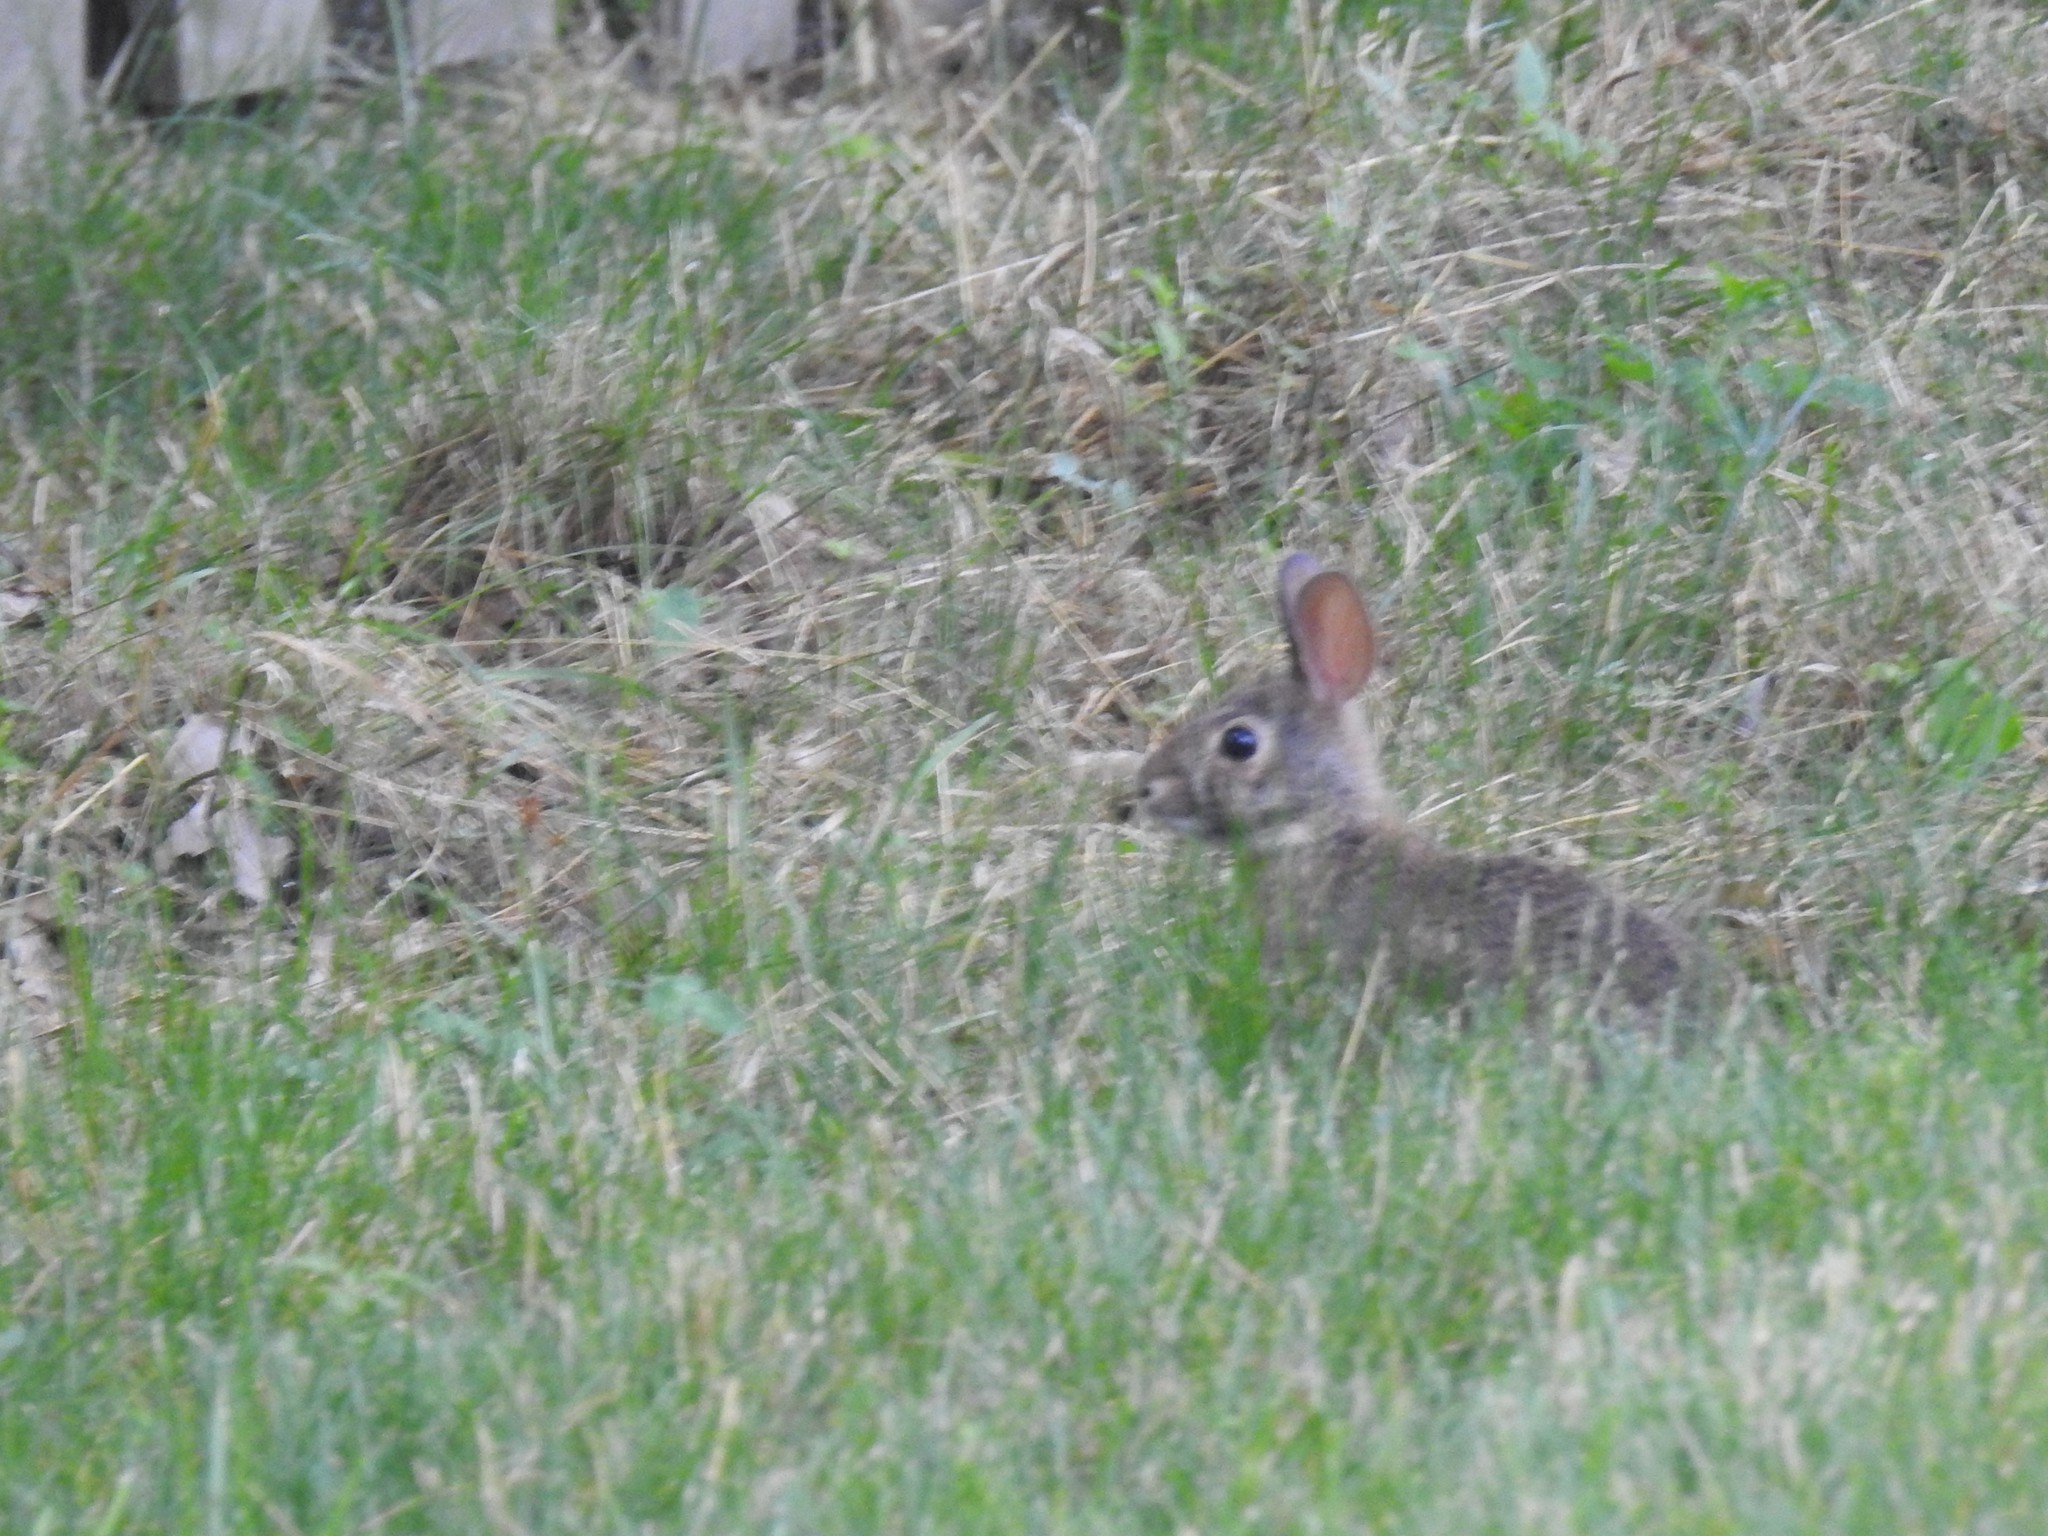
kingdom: Animalia
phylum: Chordata
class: Mammalia
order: Lagomorpha
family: Leporidae
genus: Sylvilagus
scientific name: Sylvilagus floridanus
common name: Eastern cottontail
